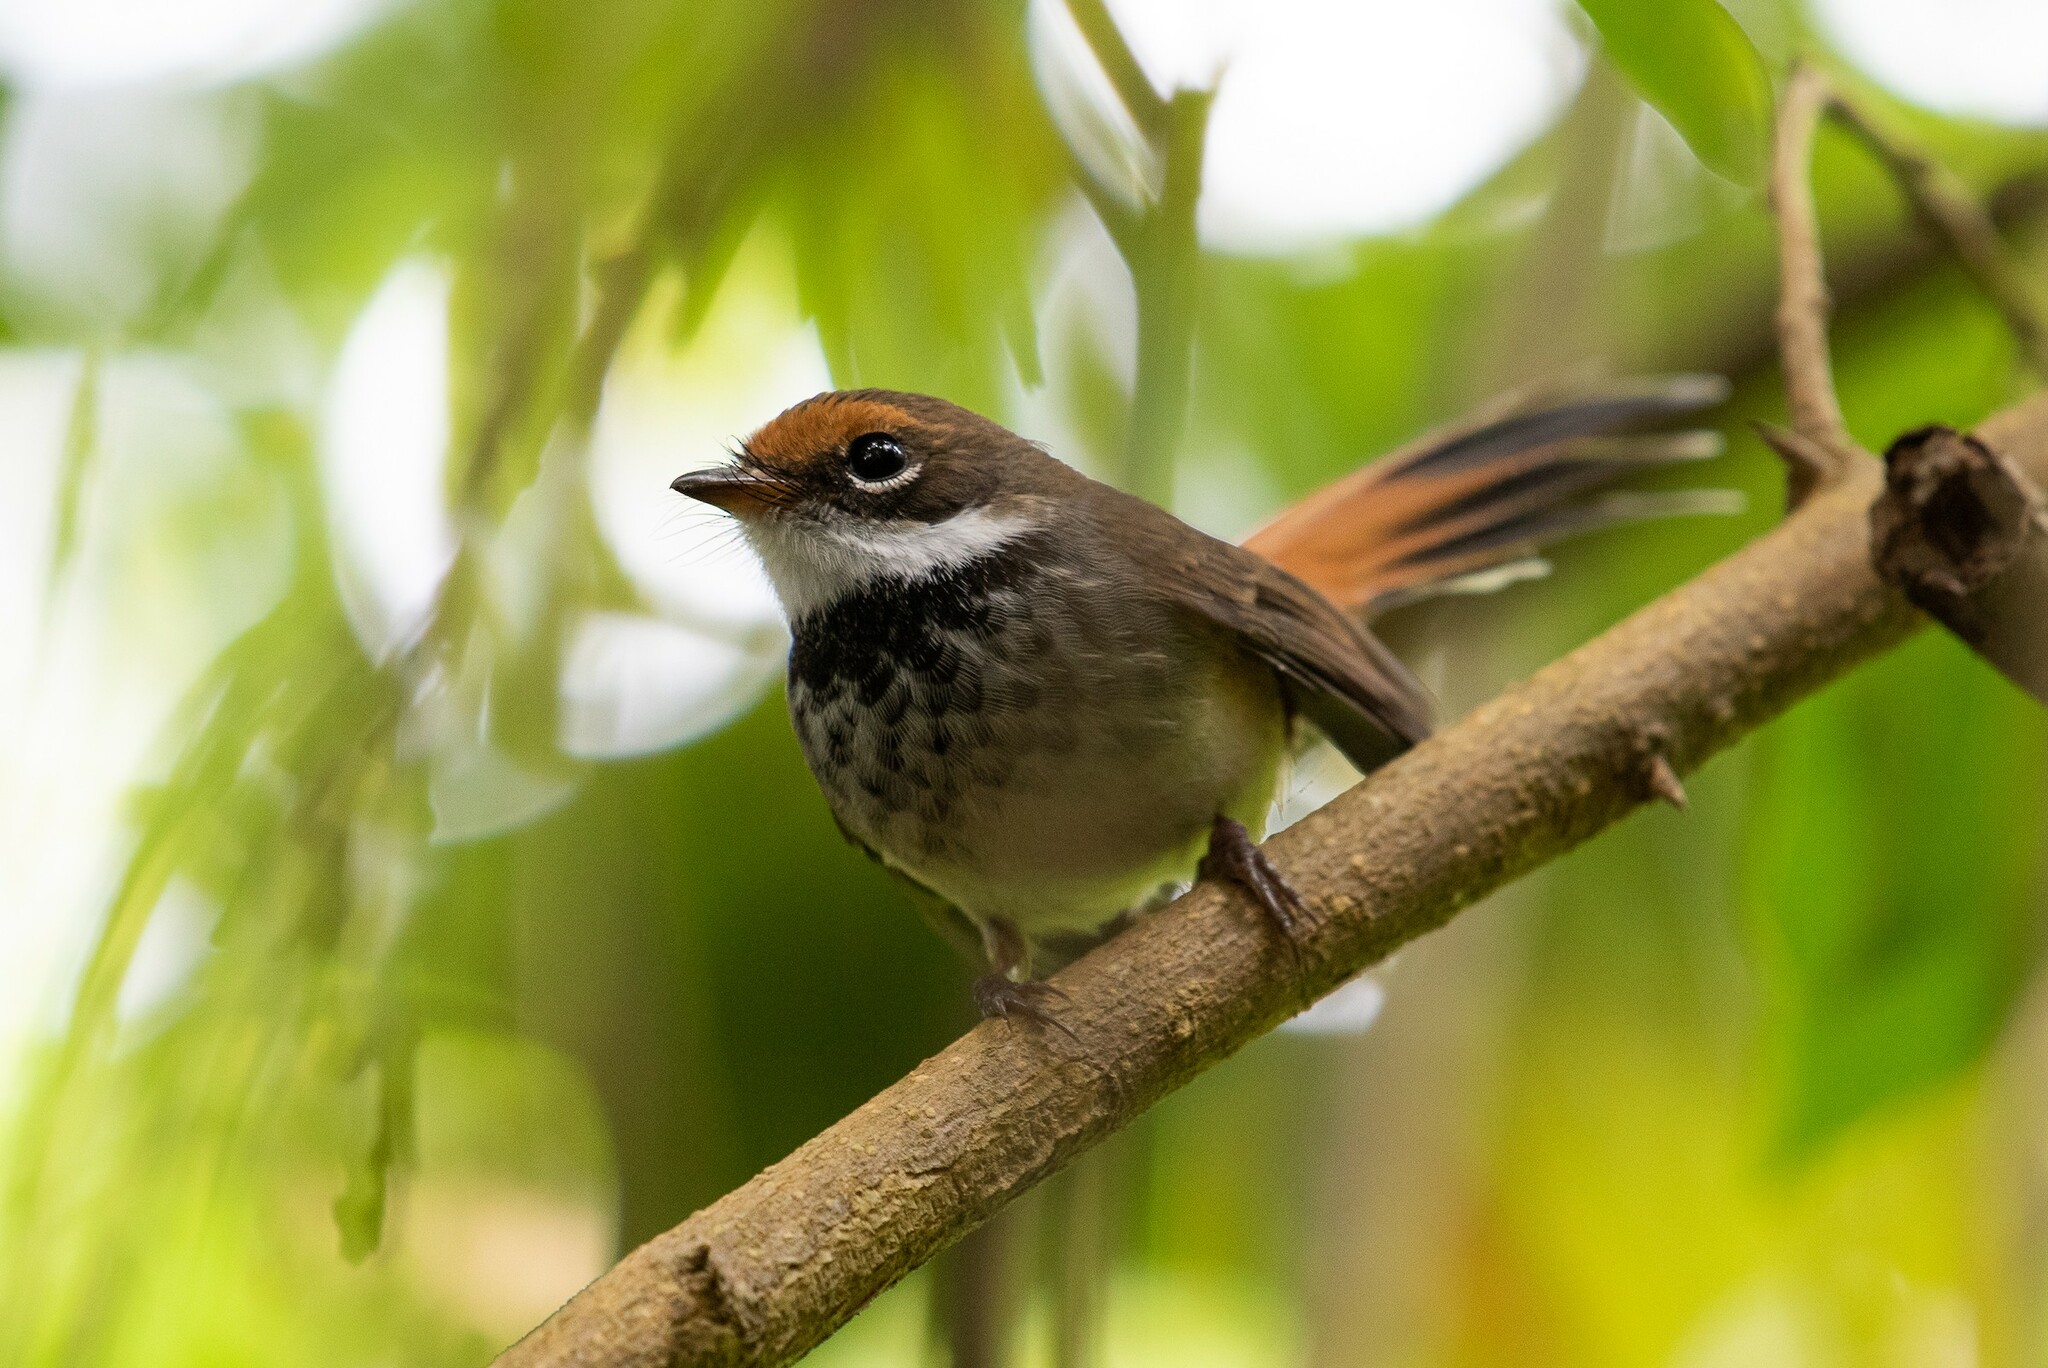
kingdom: Animalia
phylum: Chordata
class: Aves
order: Passeriformes
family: Rhipiduridae
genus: Rhipidura
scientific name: Rhipidura rufifrons
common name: Rufous fantail
